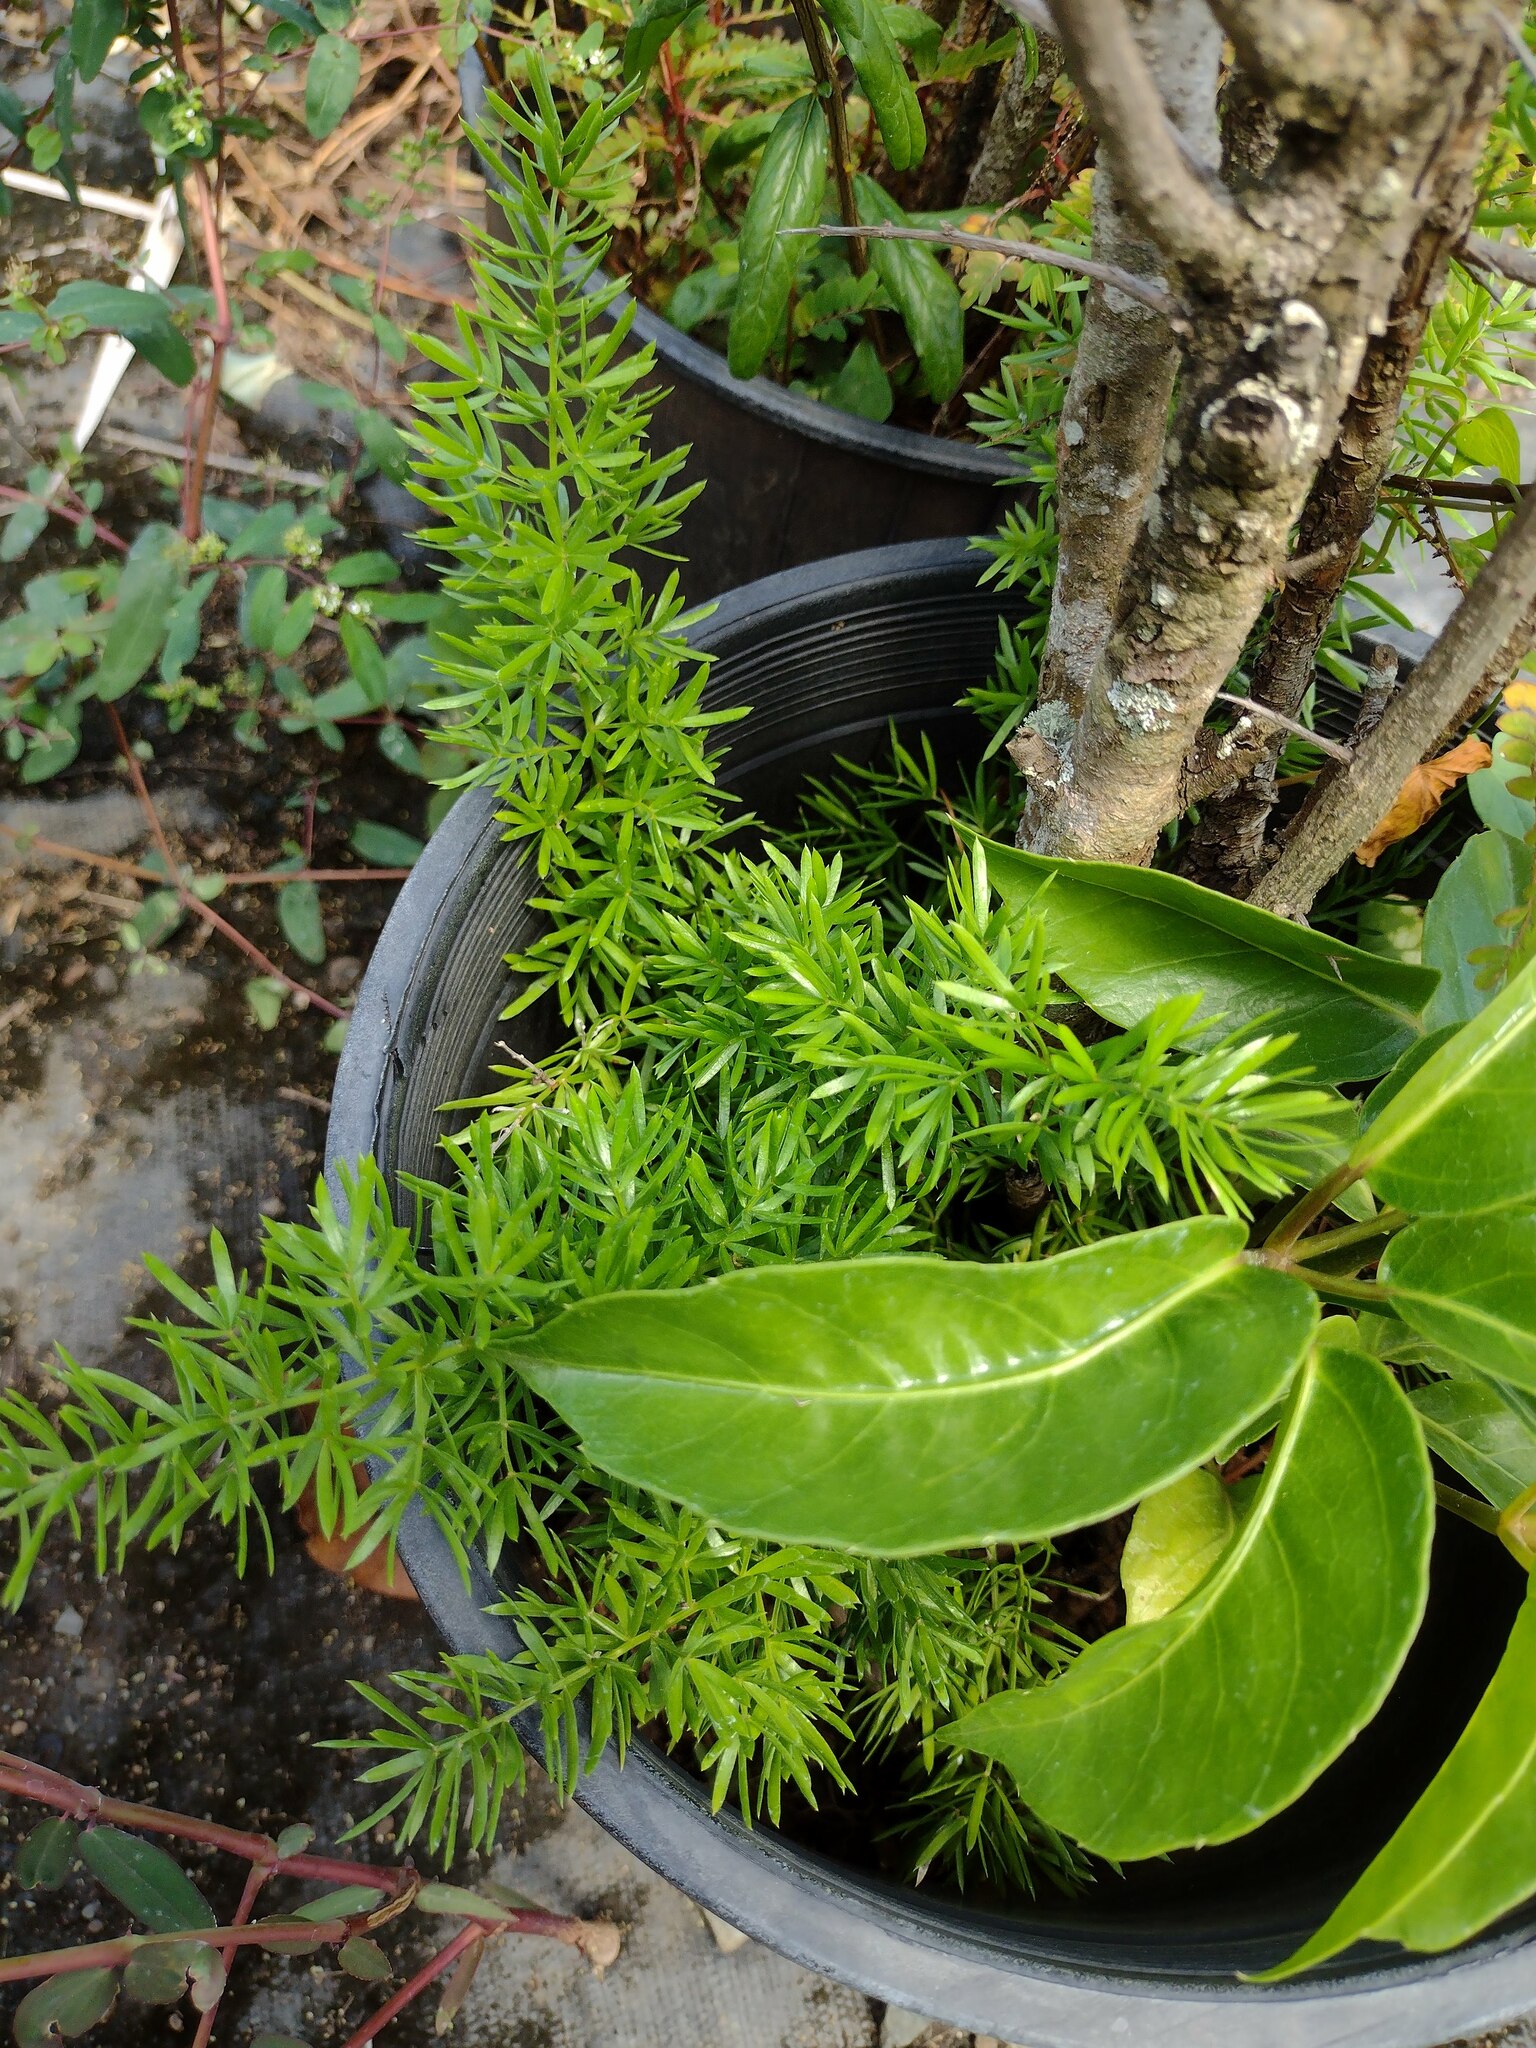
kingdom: Plantae
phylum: Tracheophyta
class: Liliopsida
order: Asparagales
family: Asparagaceae
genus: Asparagus
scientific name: Asparagus aethiopicus
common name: Sprenger's asparagus fern
